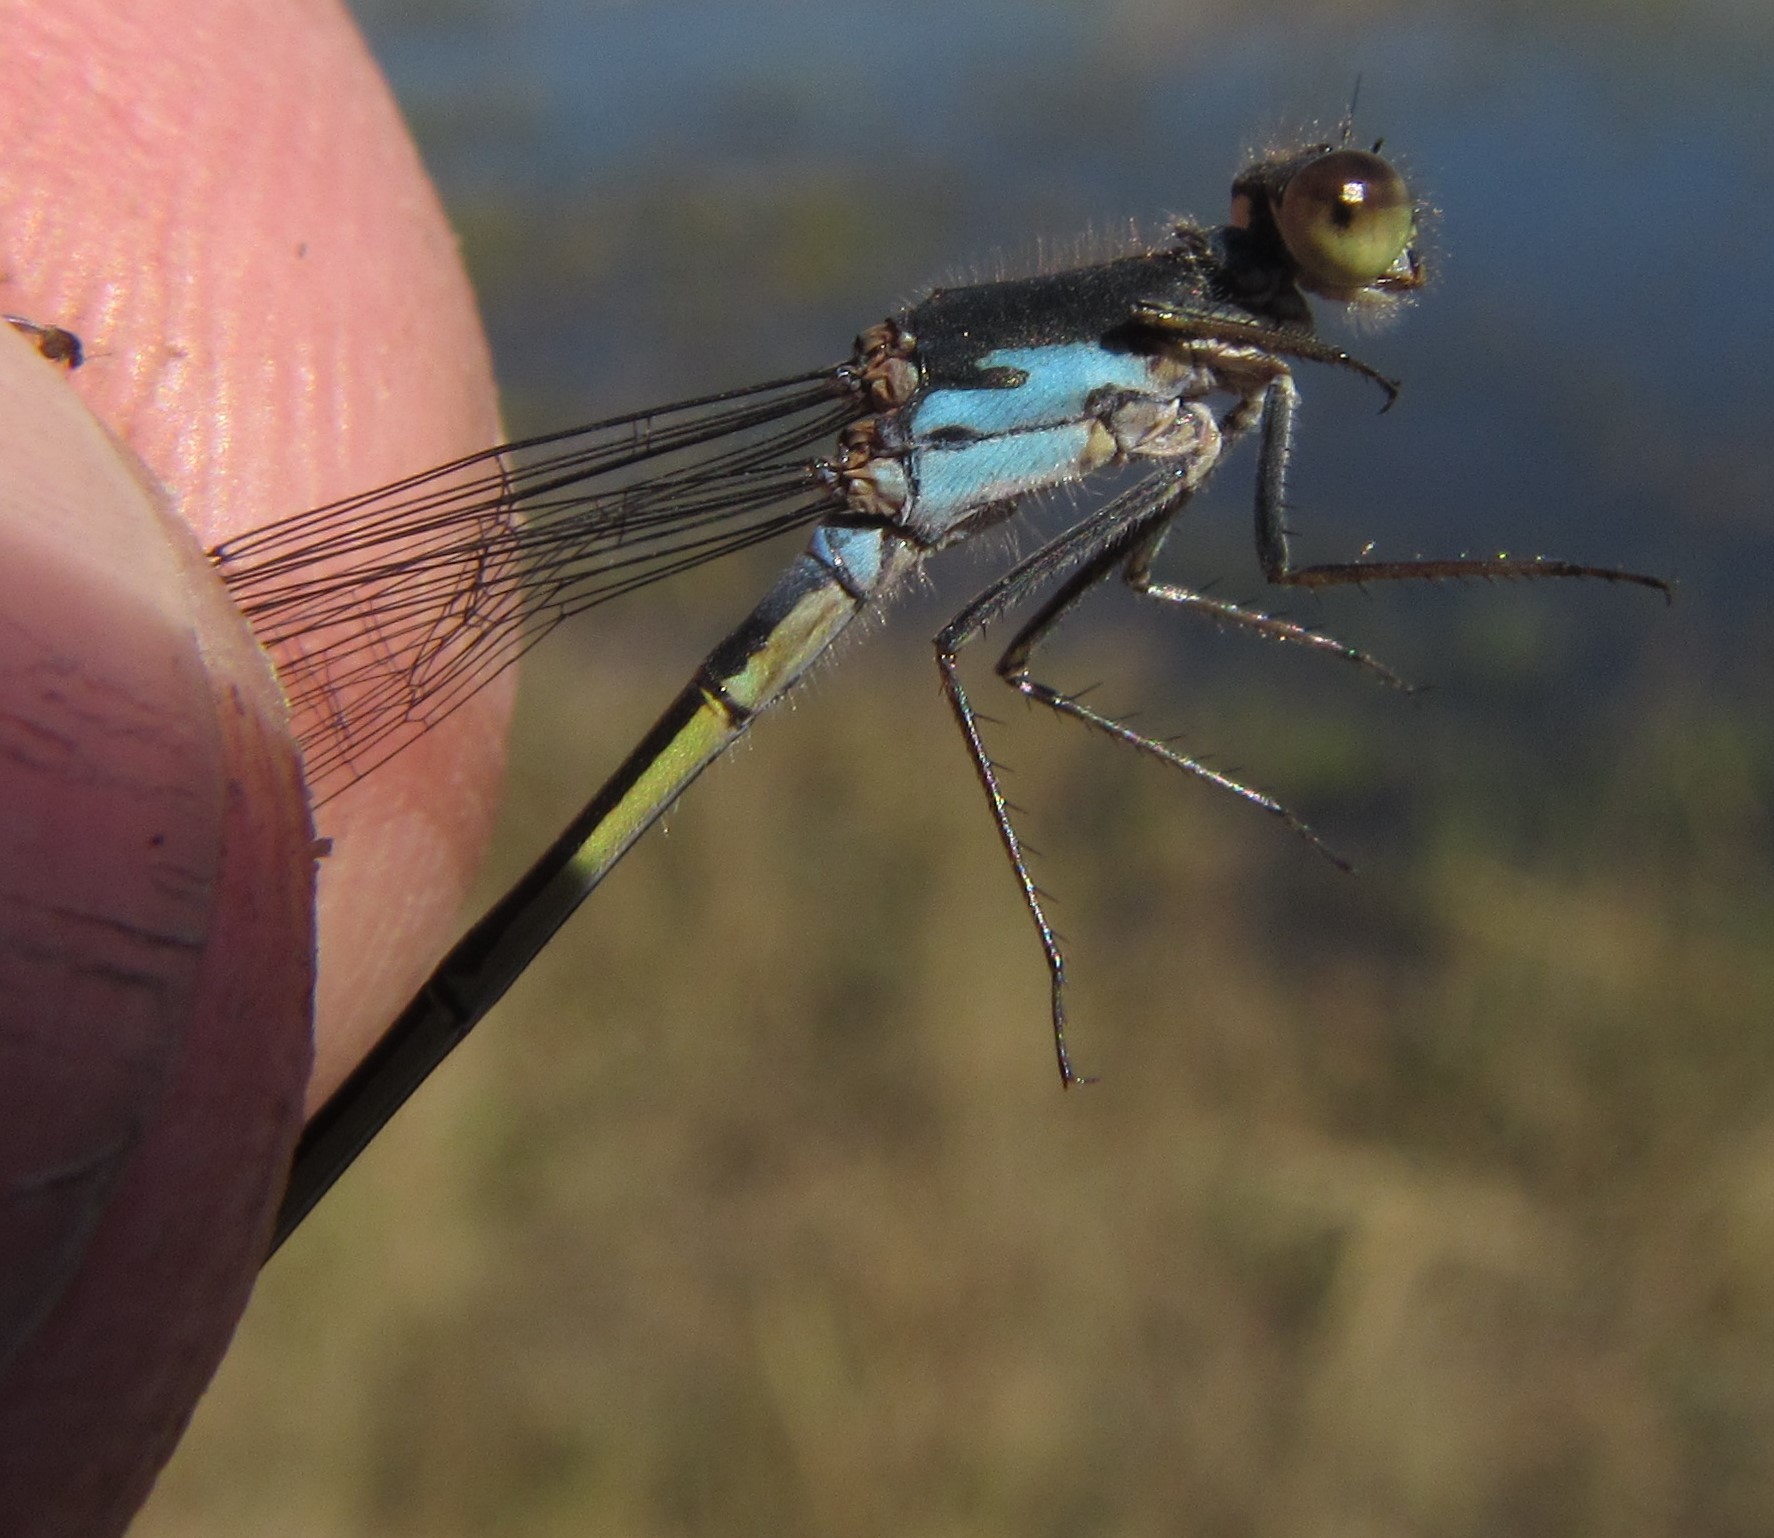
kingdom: Animalia
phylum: Arthropoda
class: Insecta
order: Odonata
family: Coenagrionidae
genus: Pseudagrion
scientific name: Pseudagrion deningi
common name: Dening's sprite
